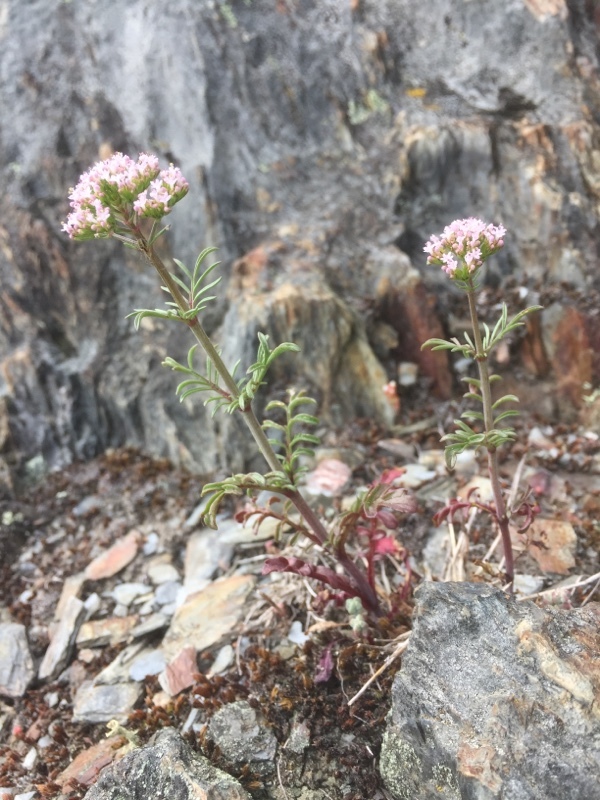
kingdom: Plantae
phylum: Tracheophyta
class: Magnoliopsida
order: Dipsacales
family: Caprifoliaceae
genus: Centranthus
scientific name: Centranthus calcitrapae
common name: Annual valerian
